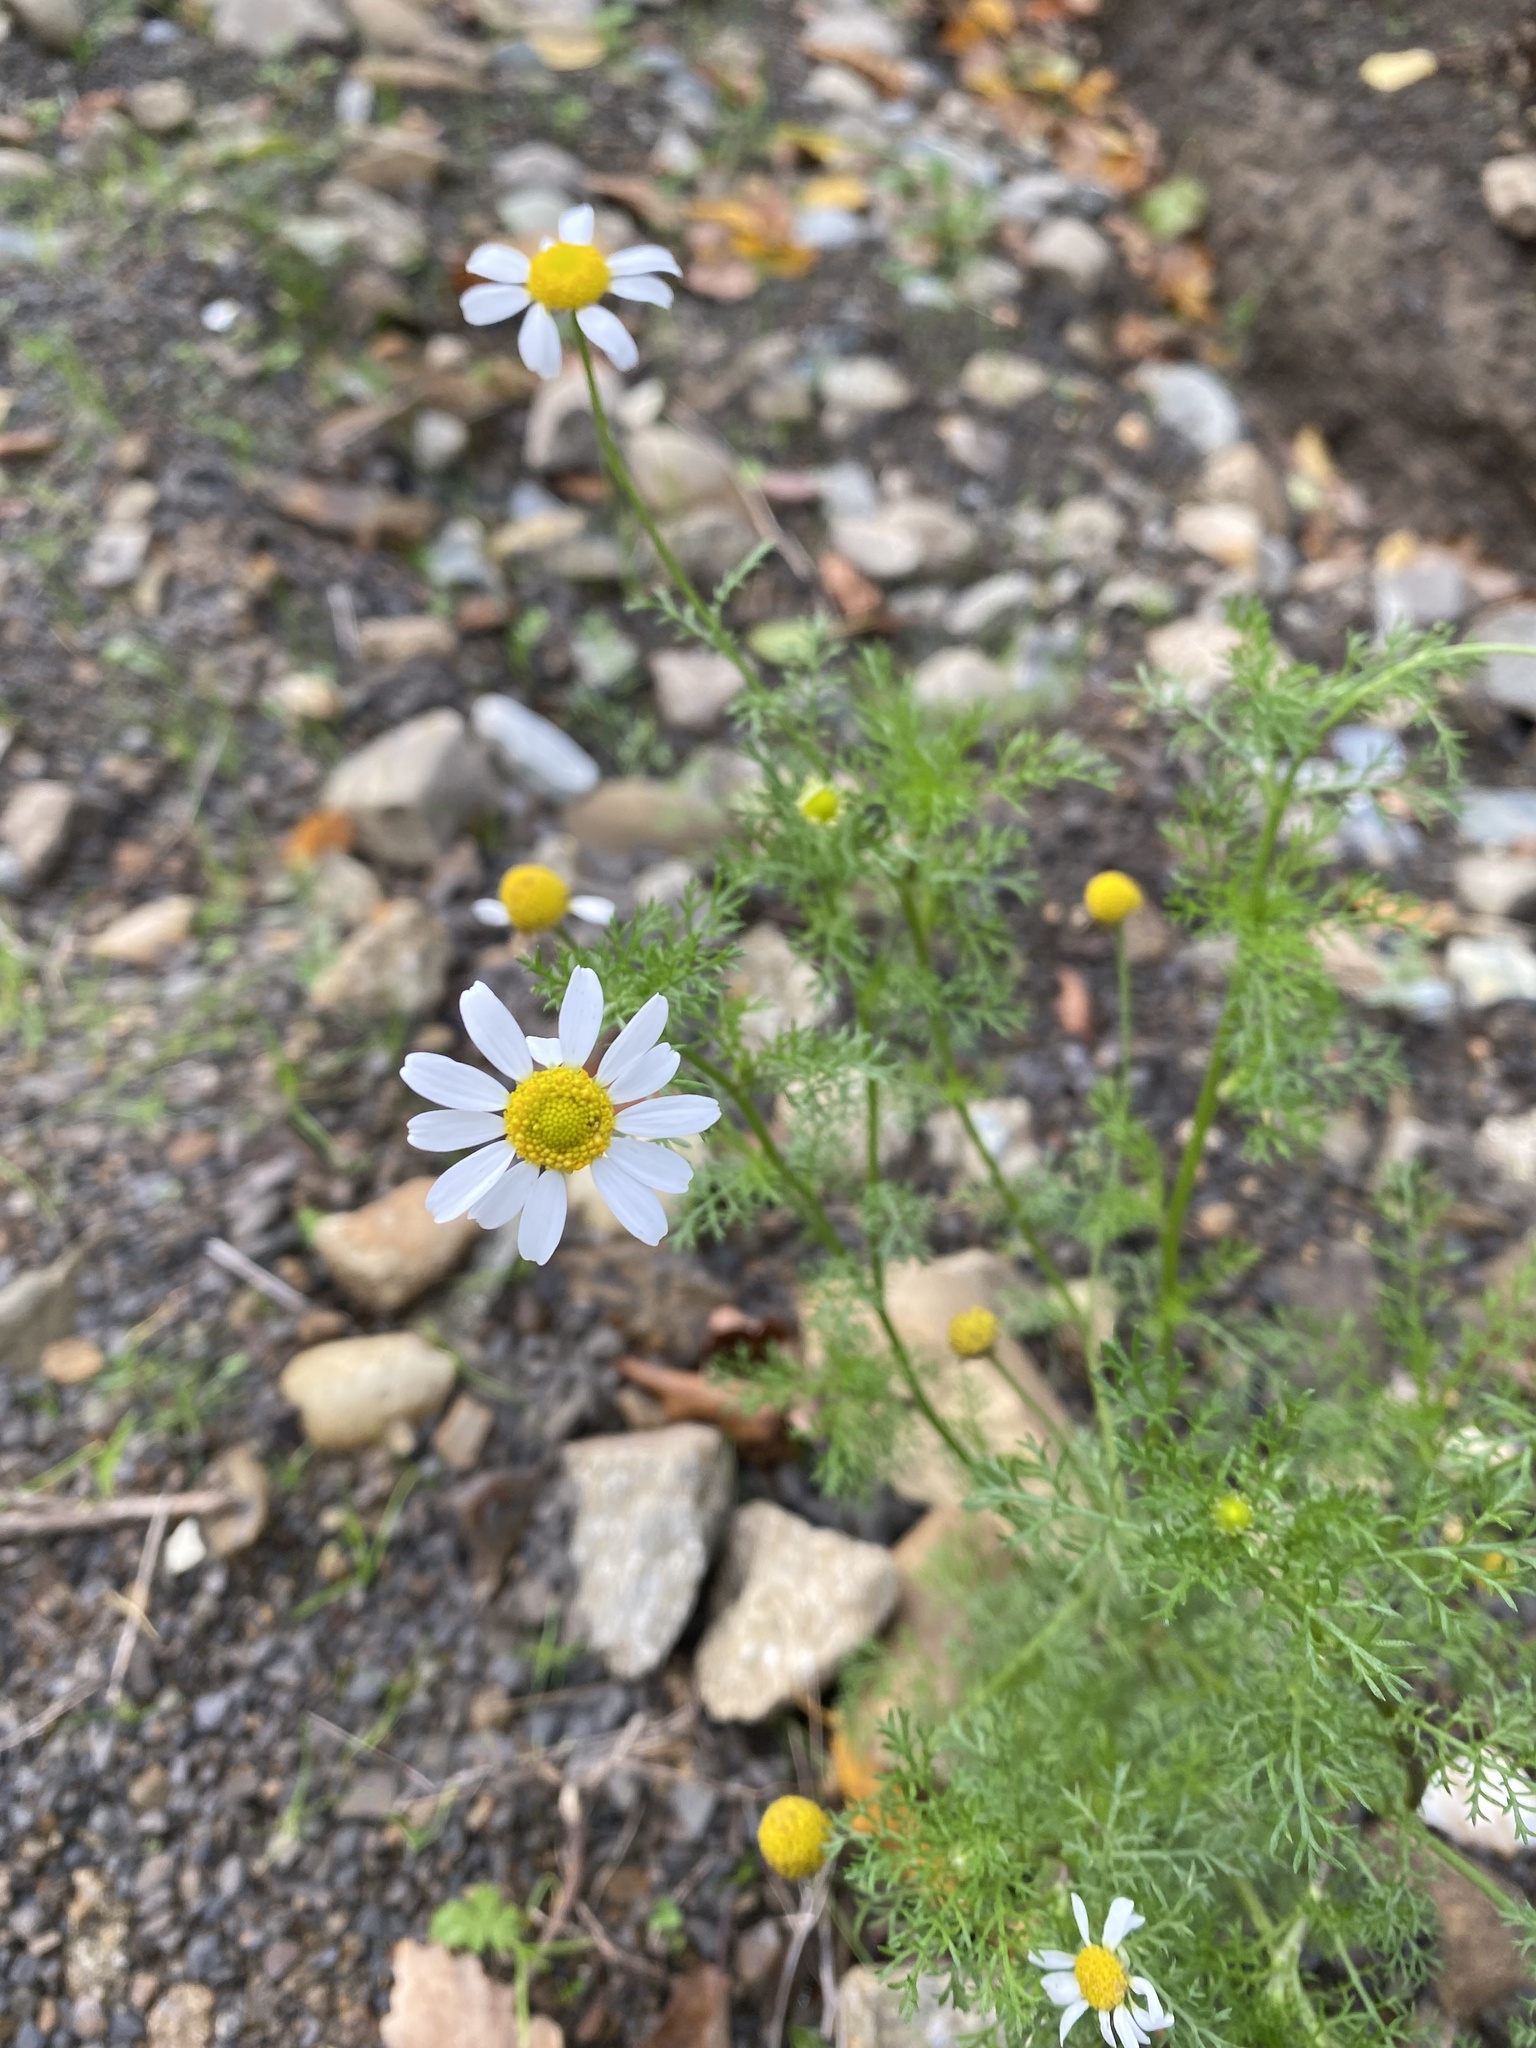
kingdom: Plantae
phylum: Tracheophyta
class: Magnoliopsida
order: Asterales
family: Asteraceae
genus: Tripleurospermum
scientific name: Tripleurospermum inodorum
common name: Scentless mayweed
